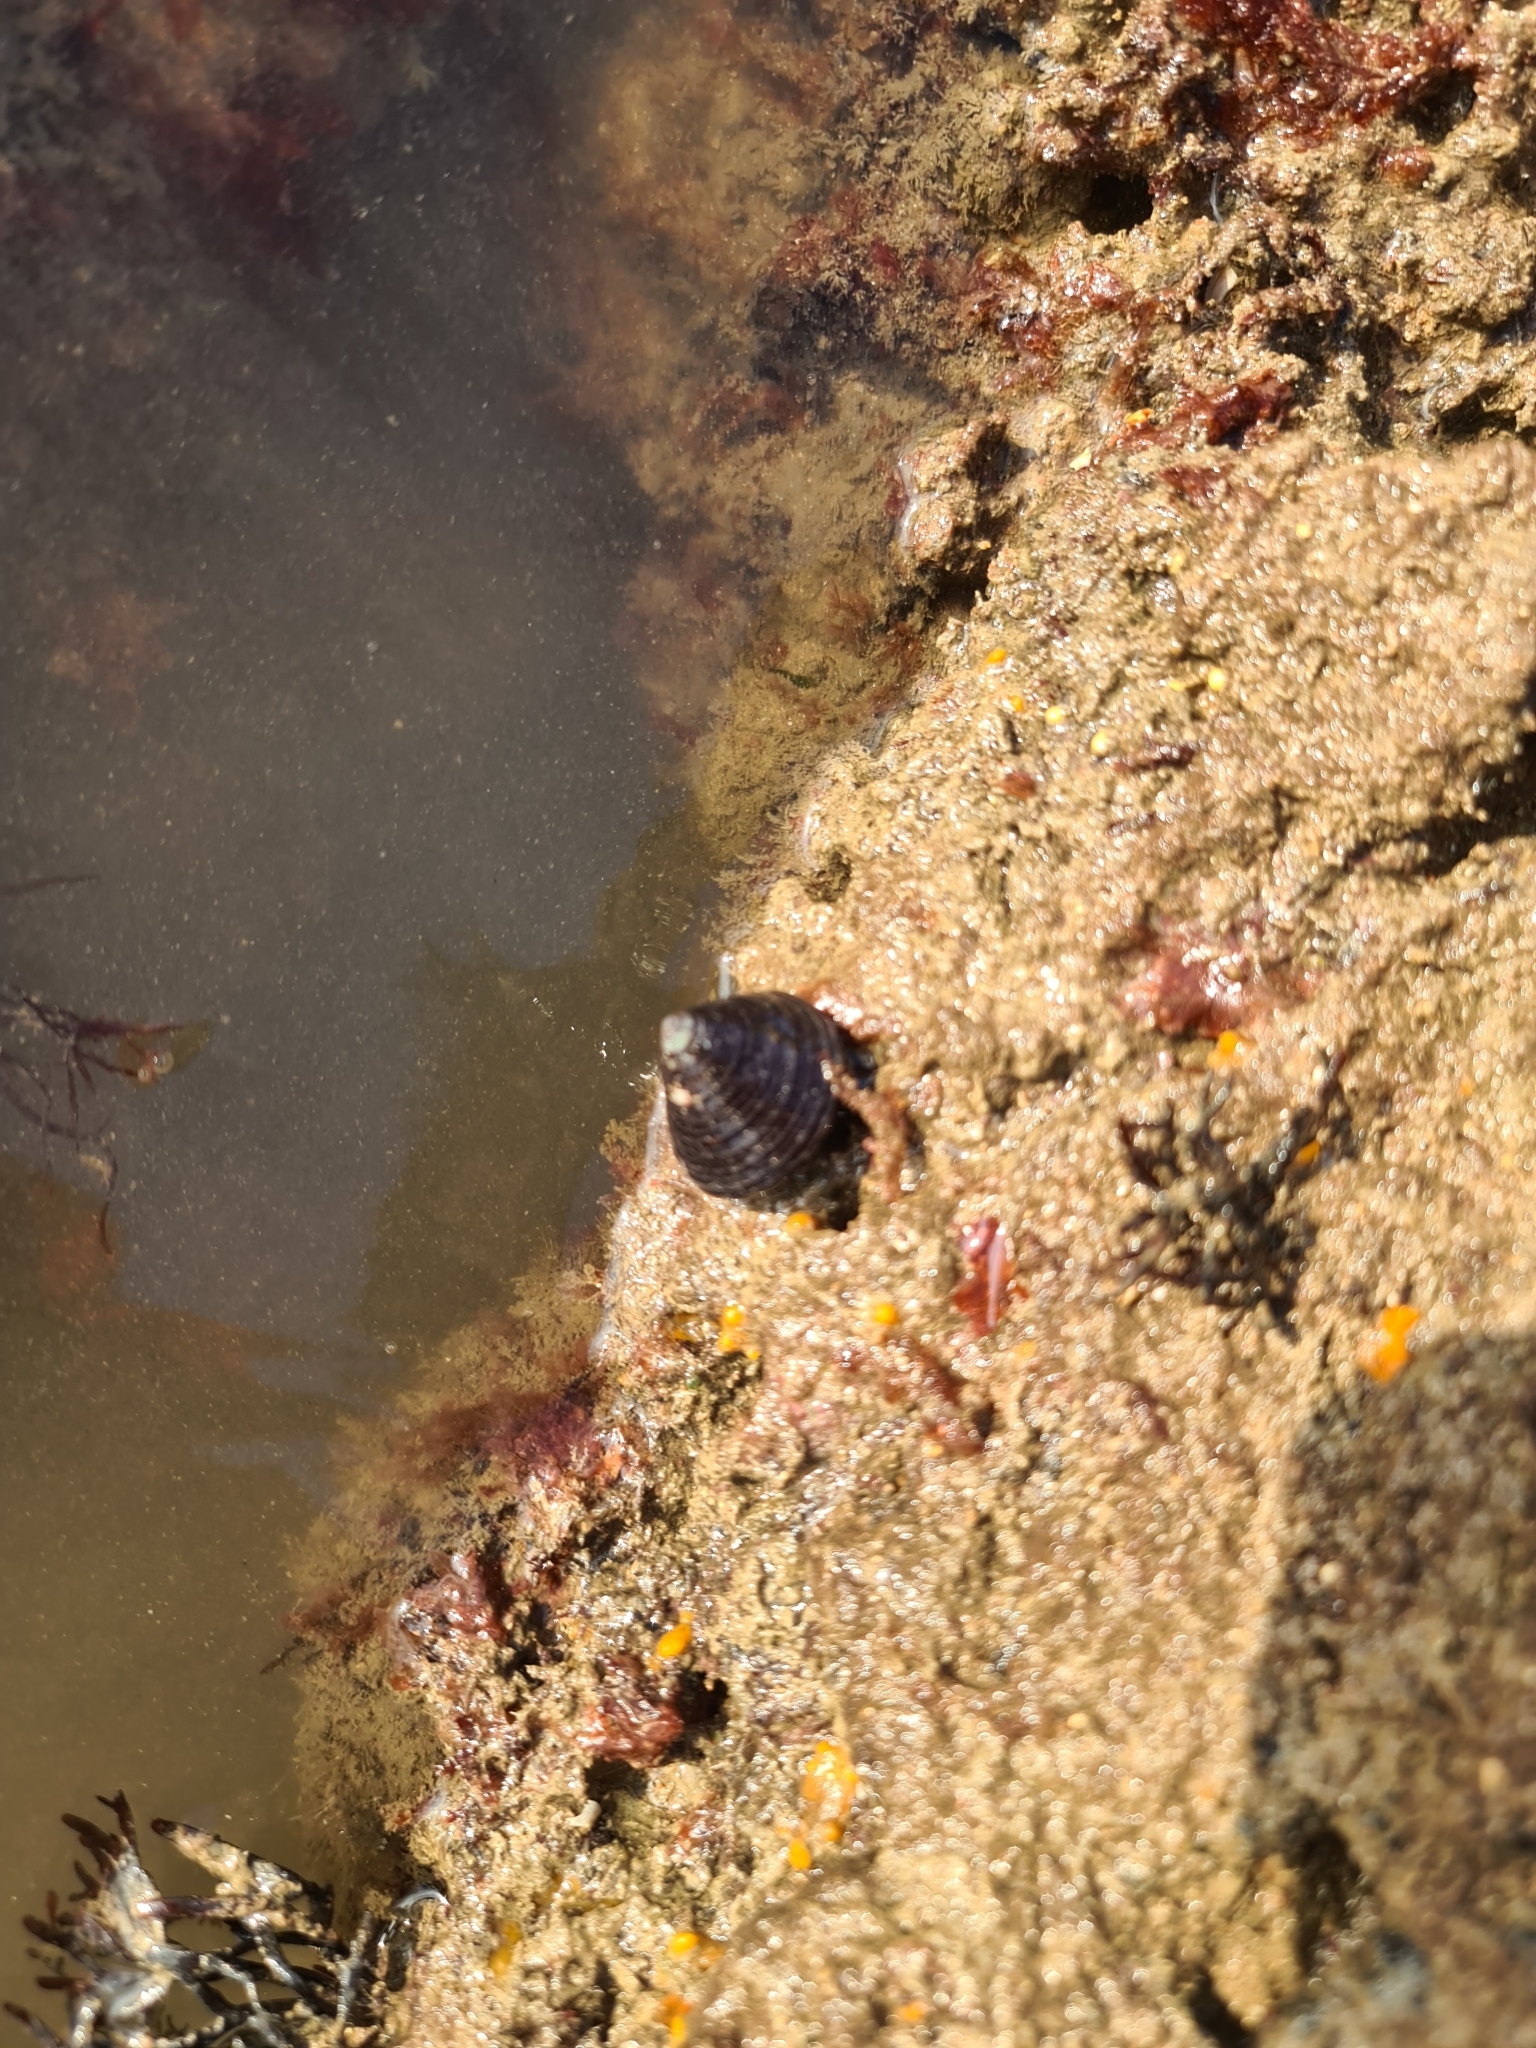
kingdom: Animalia
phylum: Mollusca
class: Gastropoda
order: Trochida
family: Calliostomatidae
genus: Calliostoma
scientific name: Calliostoma zizyphinum
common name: Painted top shell
